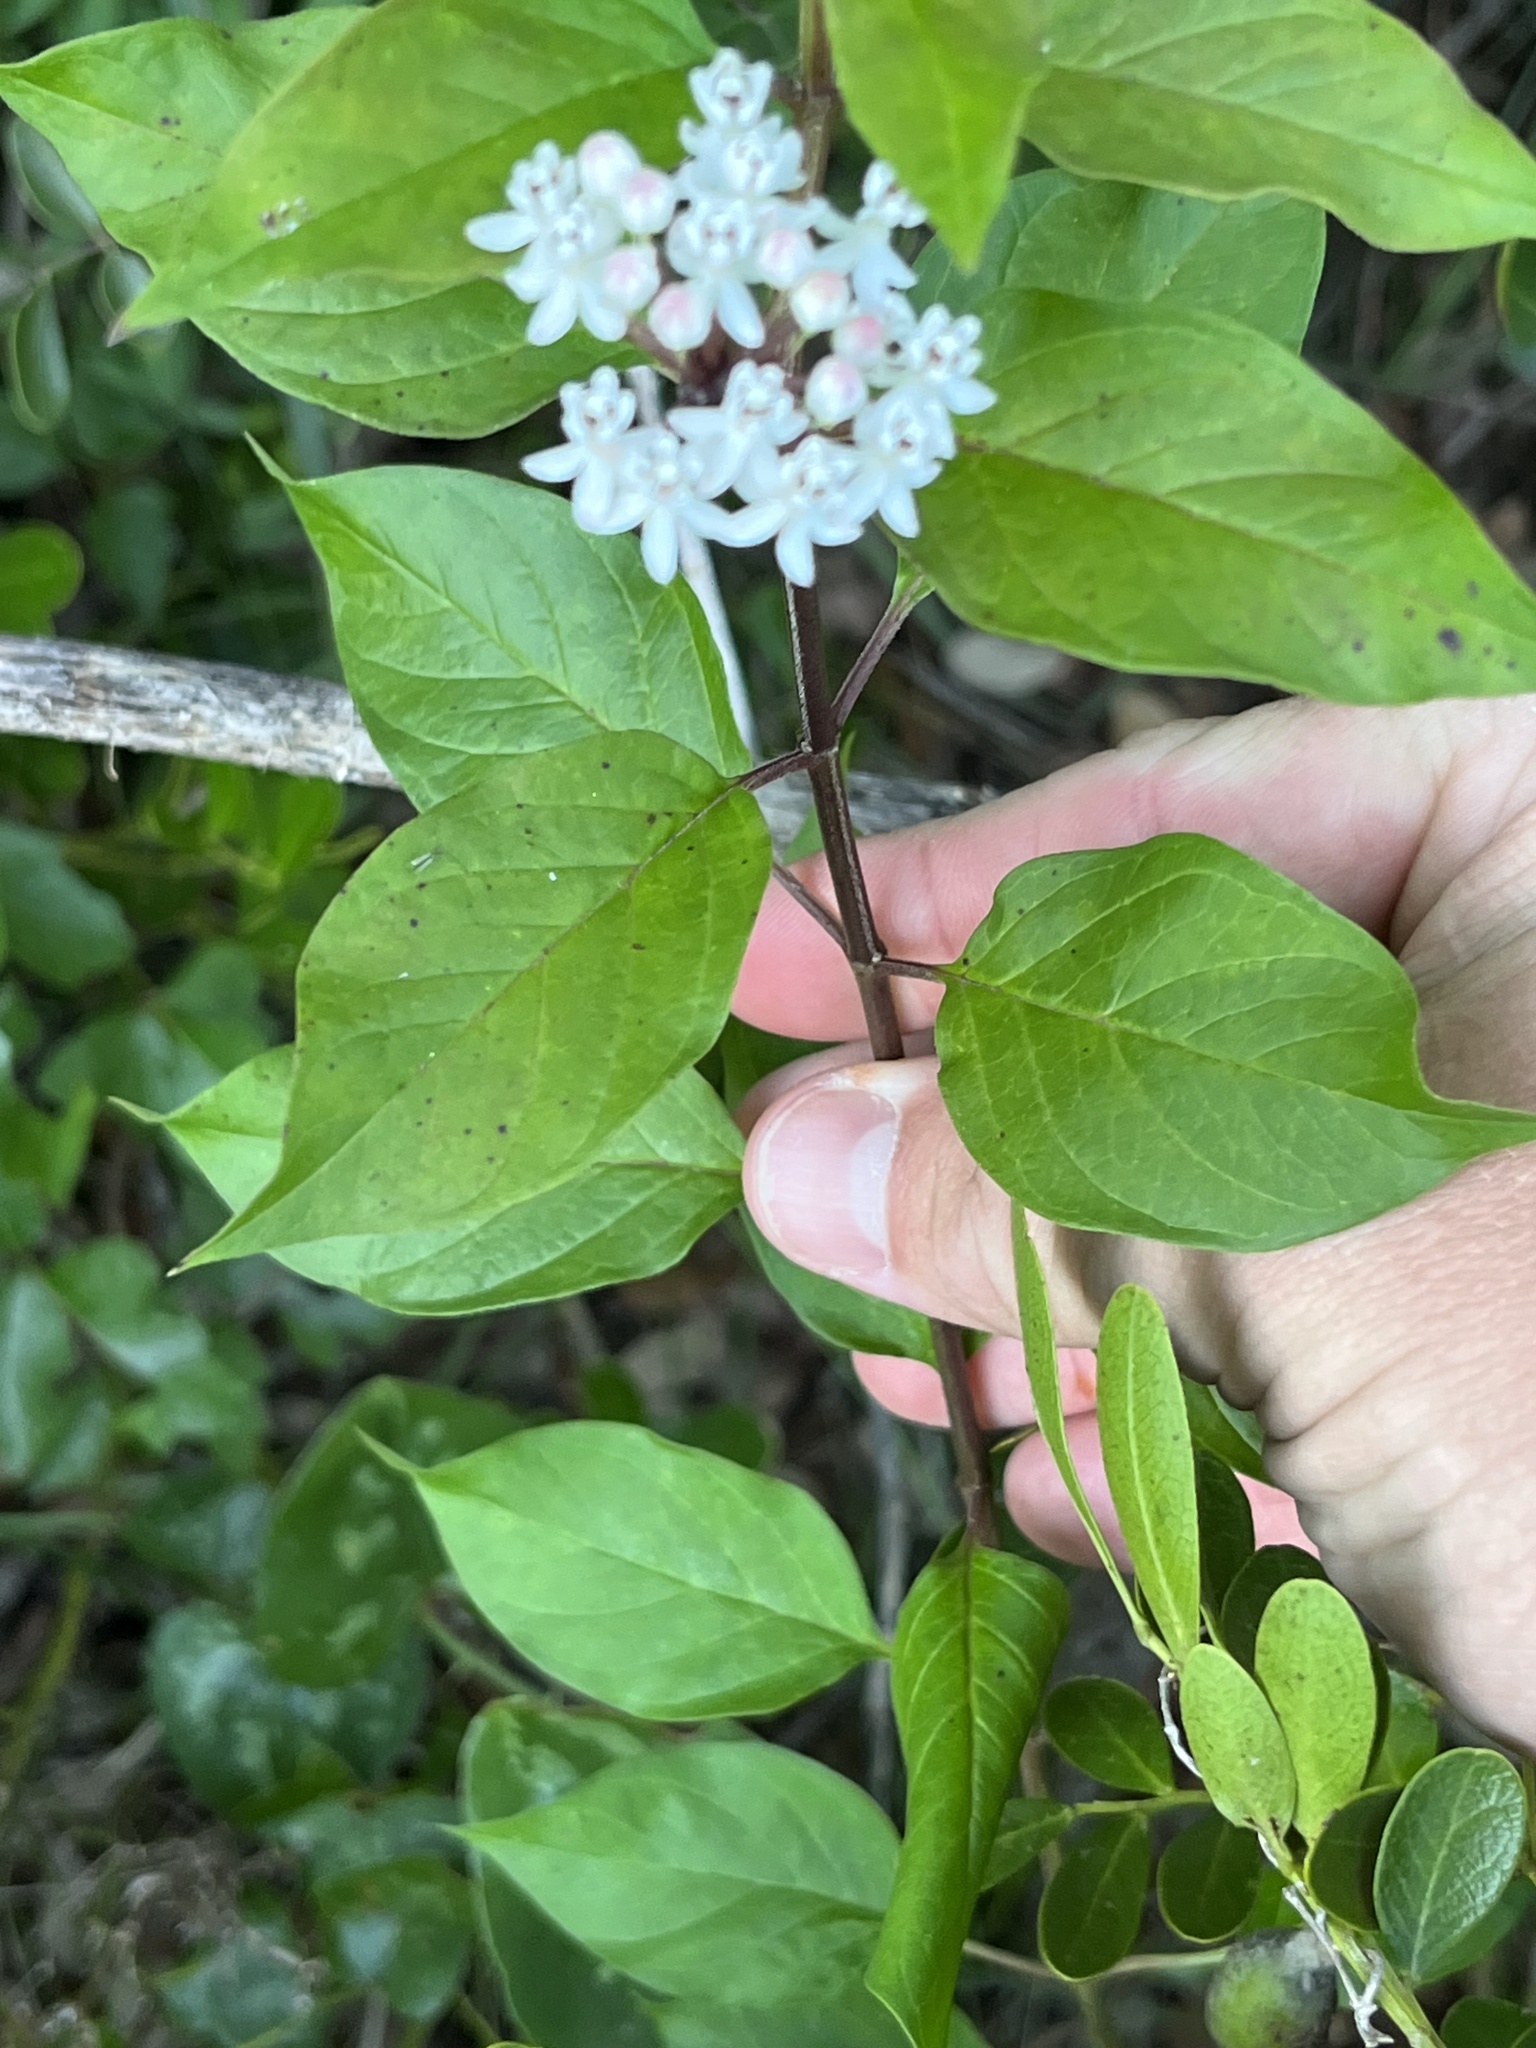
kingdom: Plantae
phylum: Tracheophyta
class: Magnoliopsida
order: Gentianales
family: Apocynaceae
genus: Asclepias
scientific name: Asclepias texana
